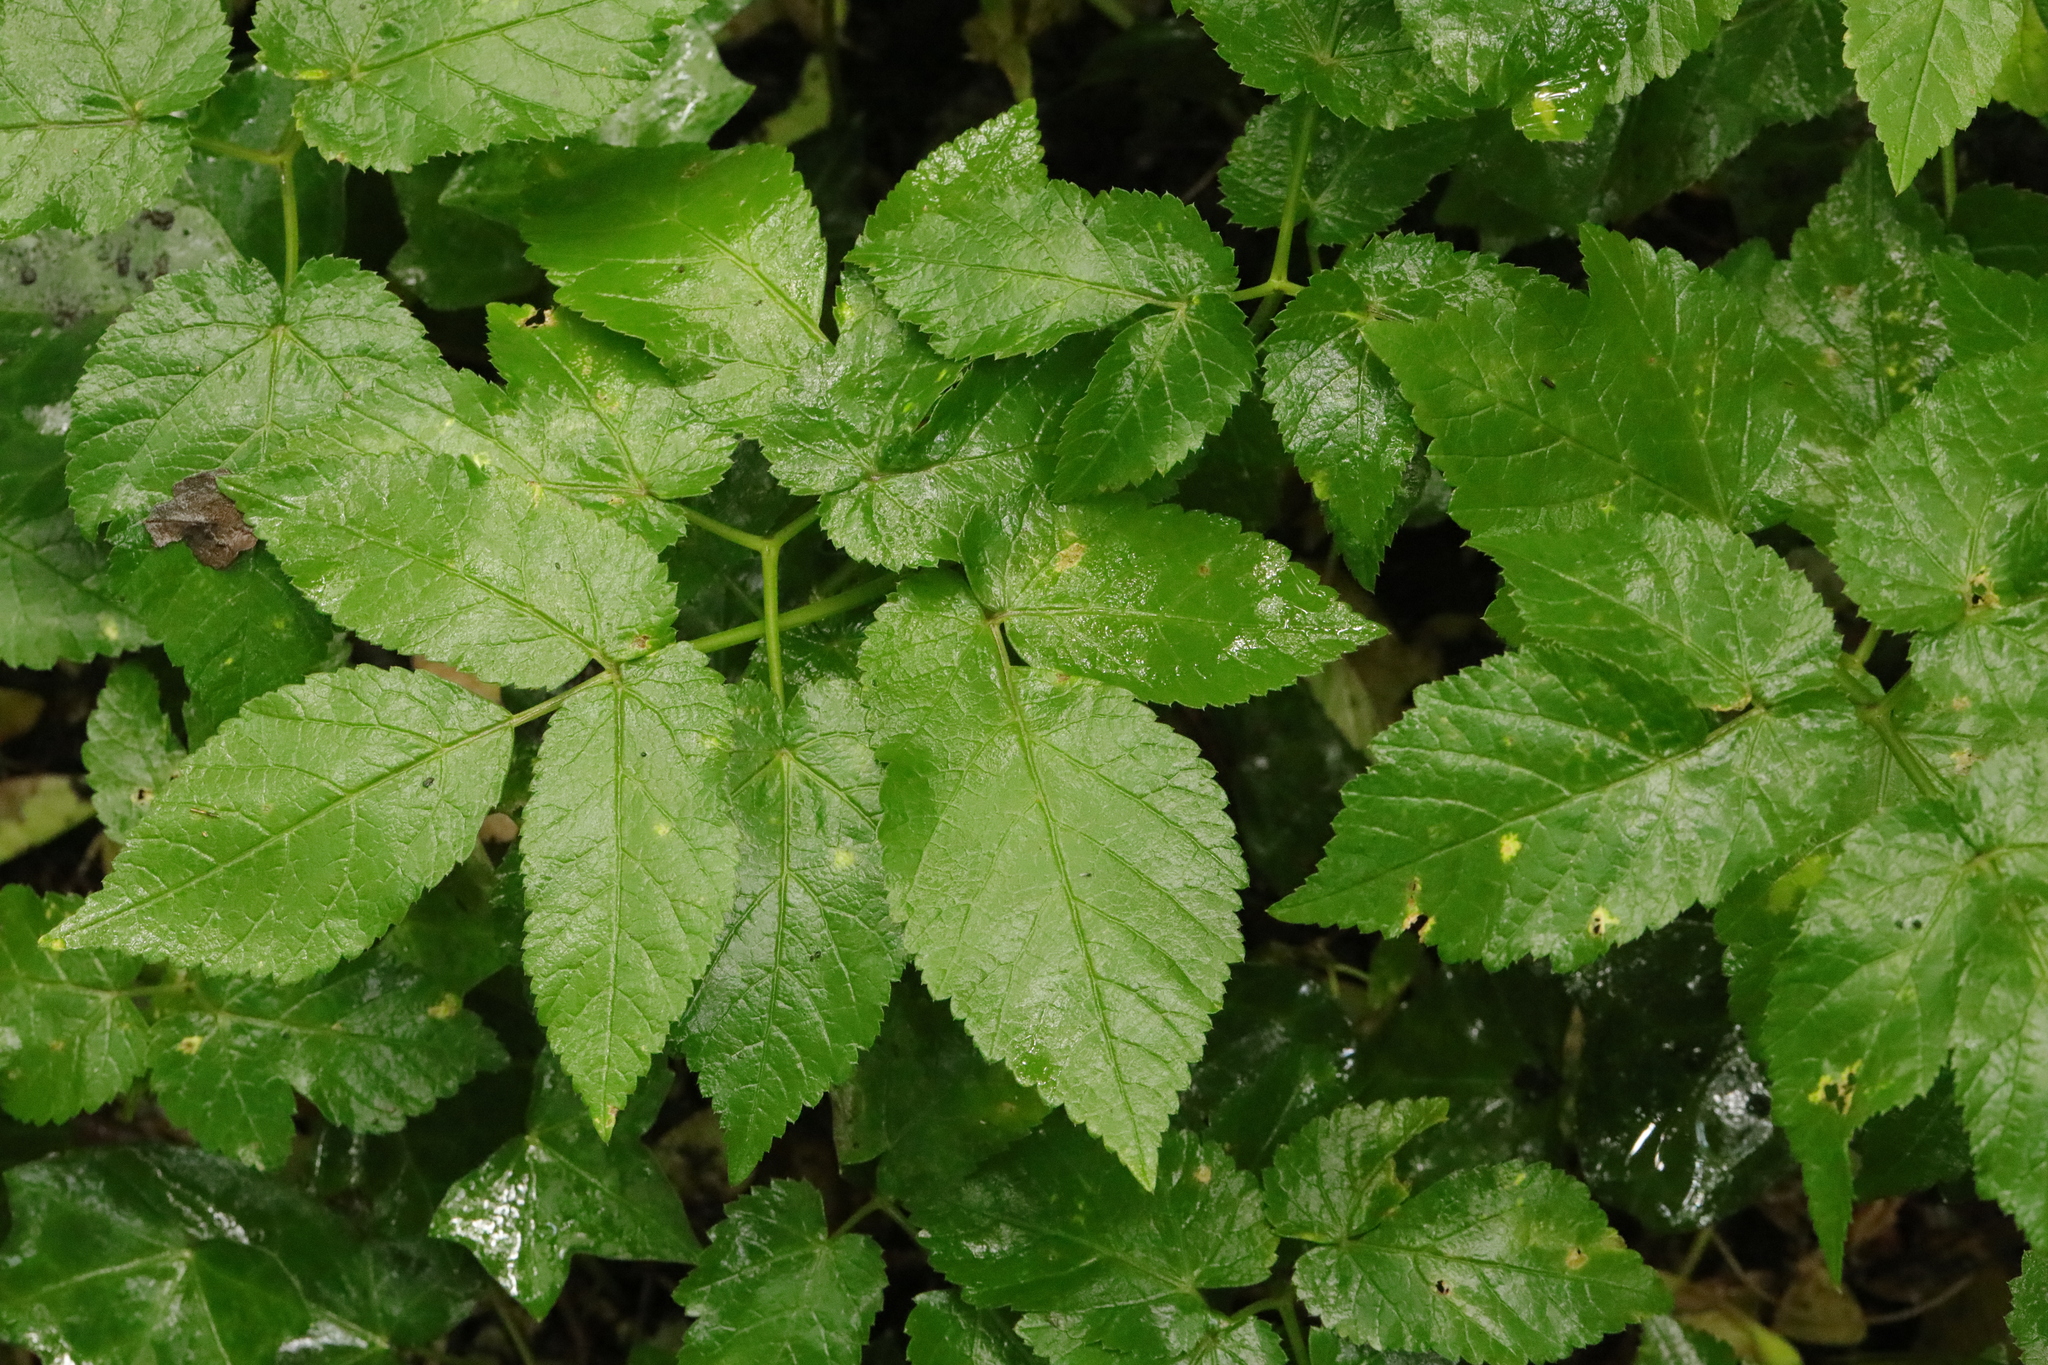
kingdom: Plantae
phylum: Tracheophyta
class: Magnoliopsida
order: Apiales
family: Apiaceae
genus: Aegopodium
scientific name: Aegopodium podagraria
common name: Ground-elder
